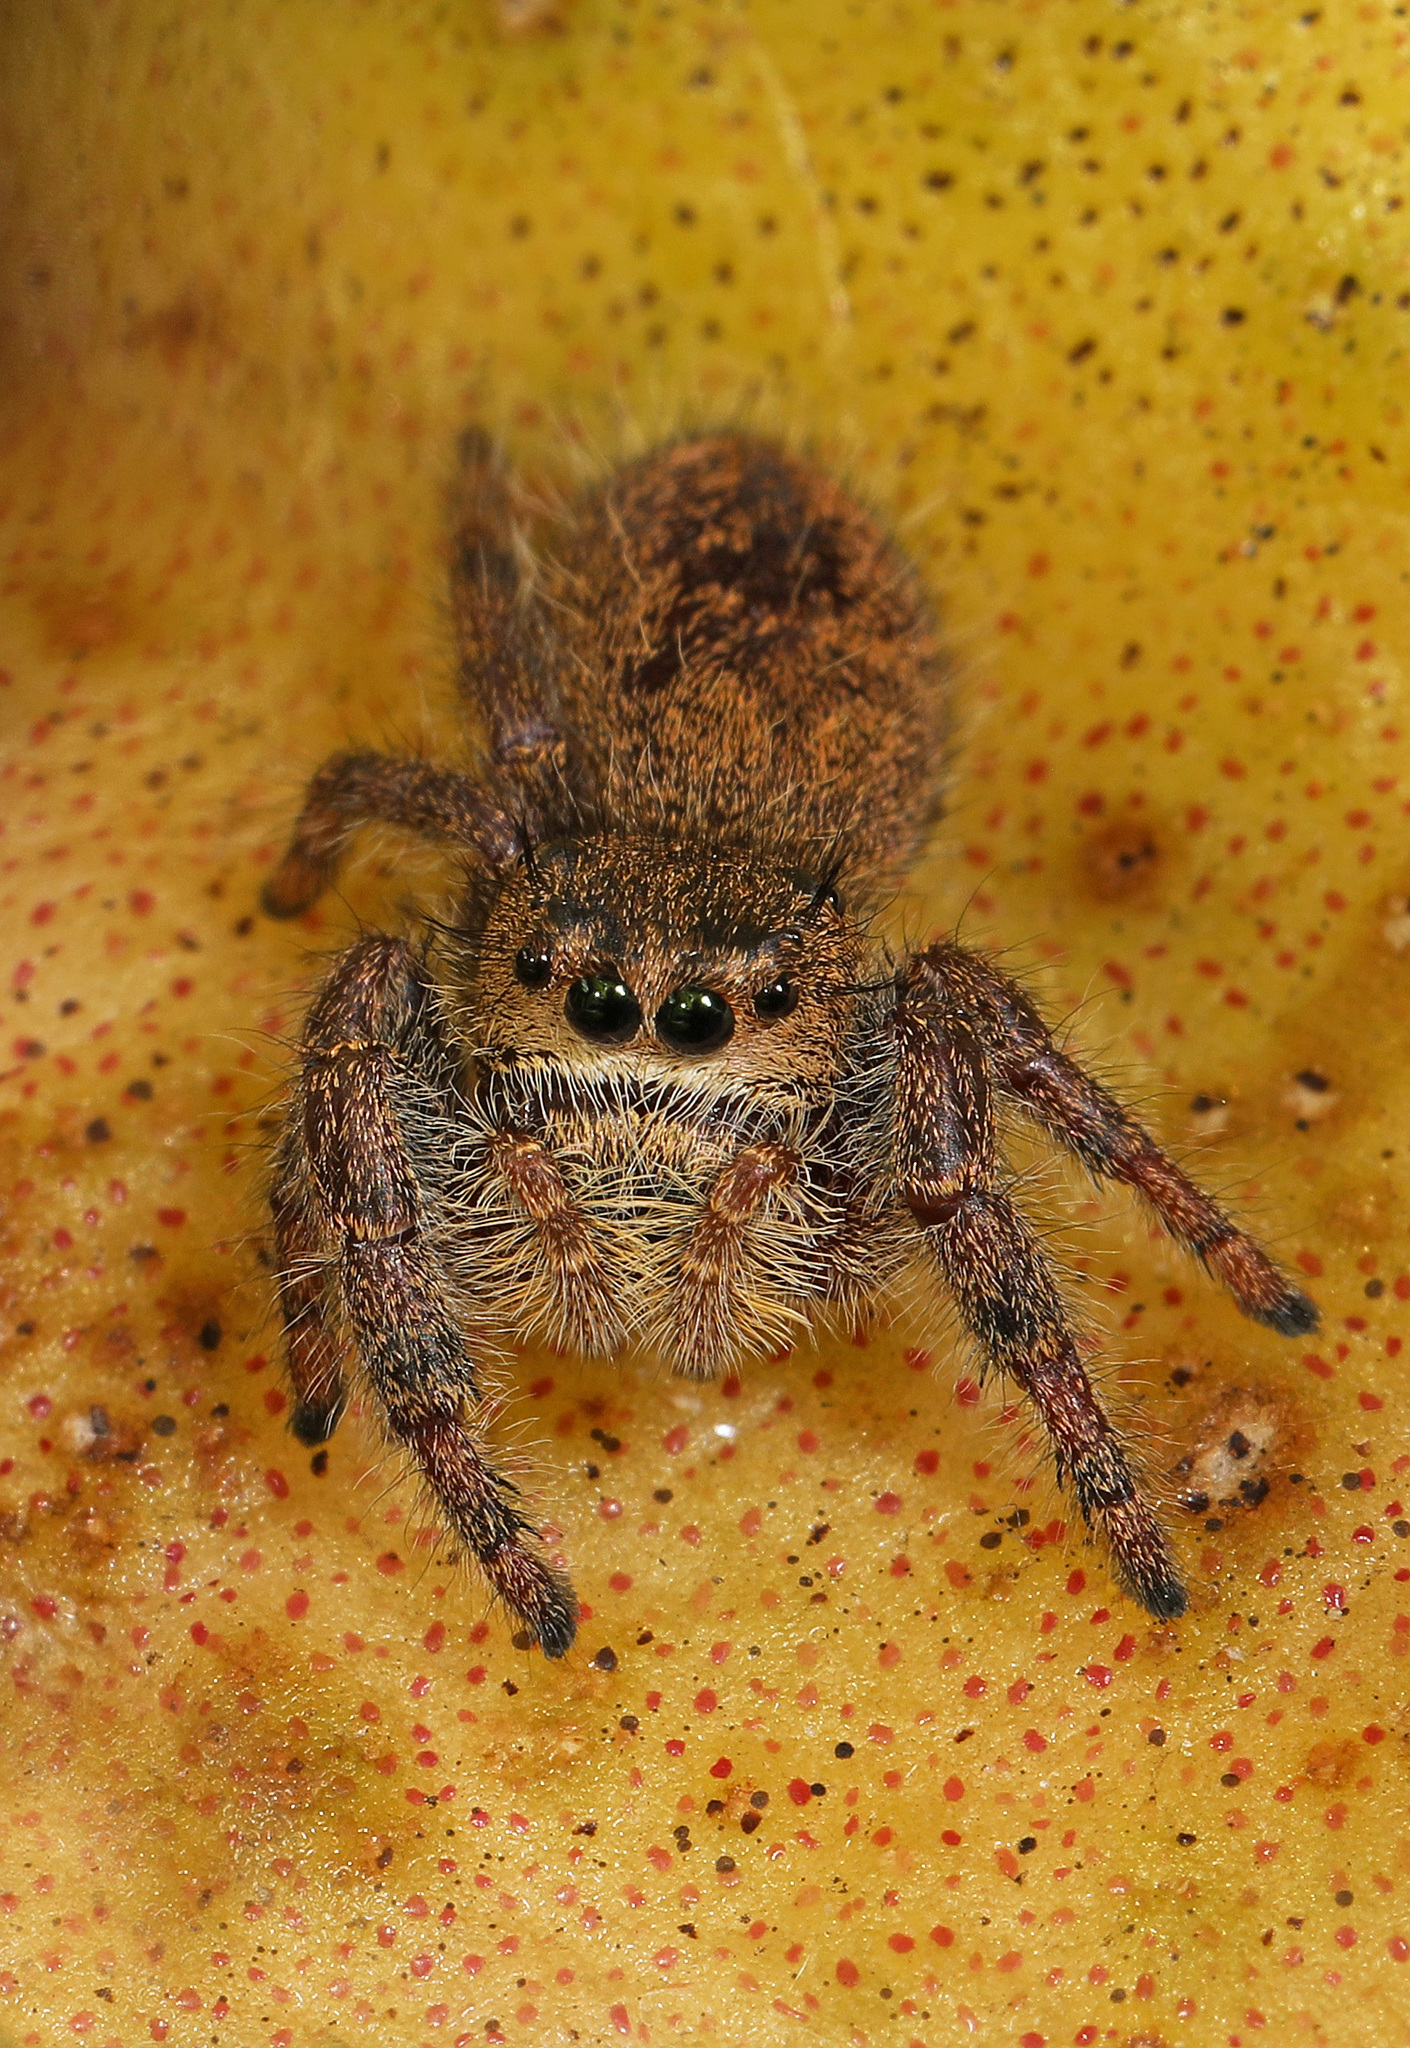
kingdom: Animalia
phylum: Arthropoda
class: Arachnida
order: Araneae
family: Salticidae
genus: Phidippus
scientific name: Phidippus princeps
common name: Grayish jumping spider
